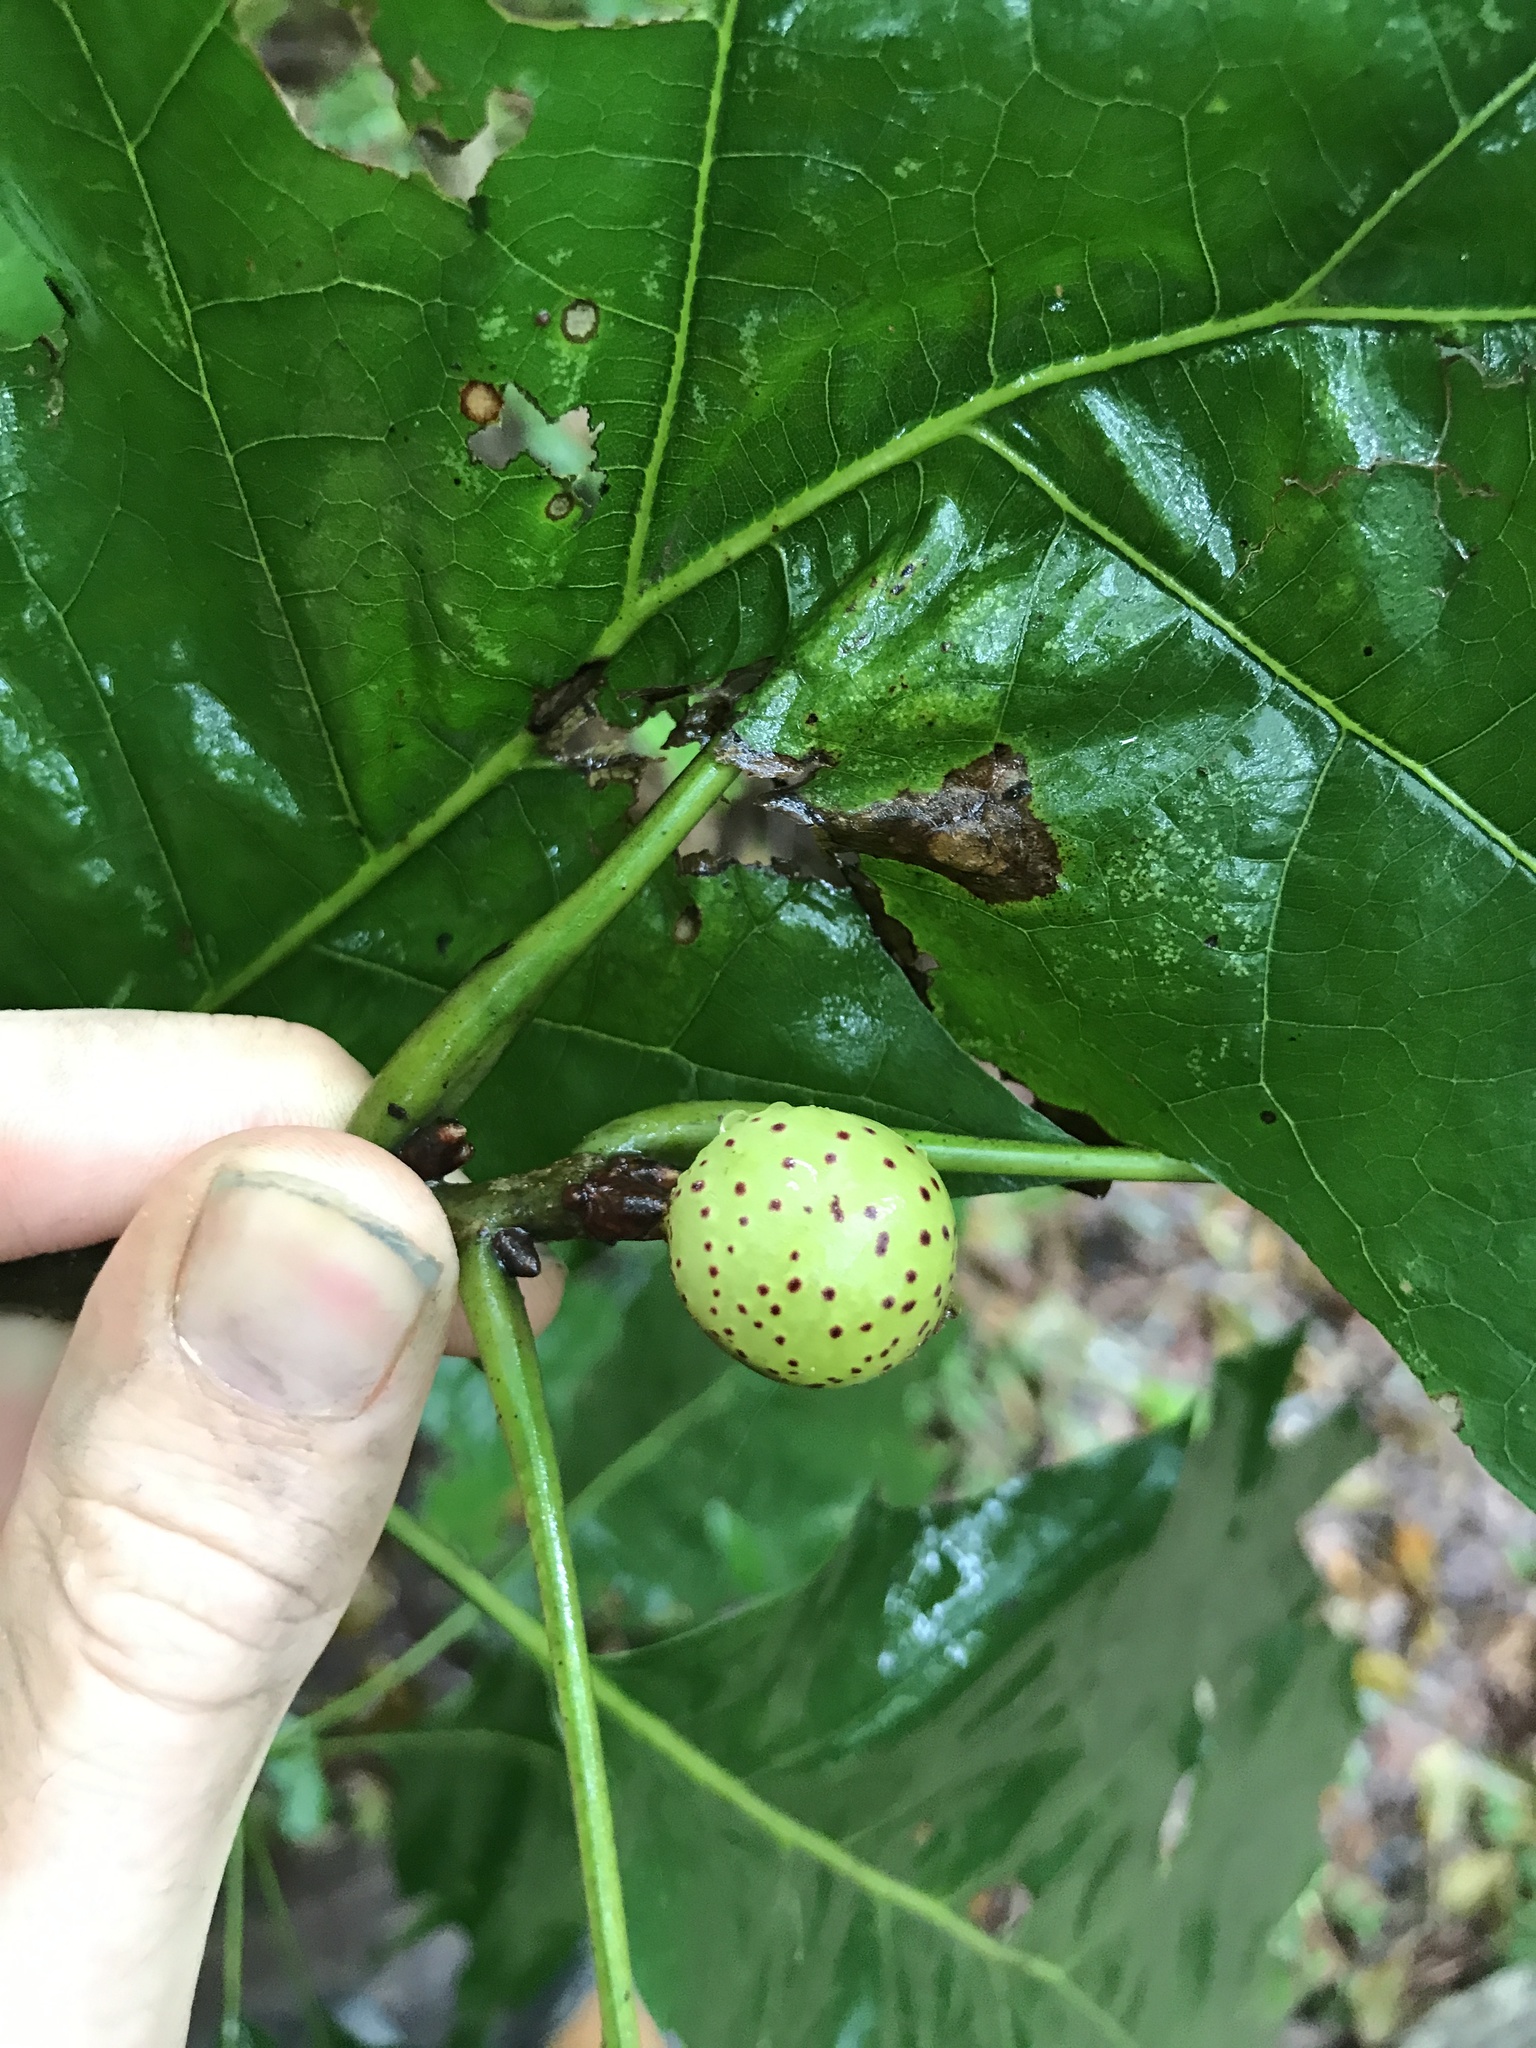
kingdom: Animalia
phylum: Arthropoda
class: Insecta
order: Hymenoptera
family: Cynipidae
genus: Amphibolips
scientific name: Amphibolips
